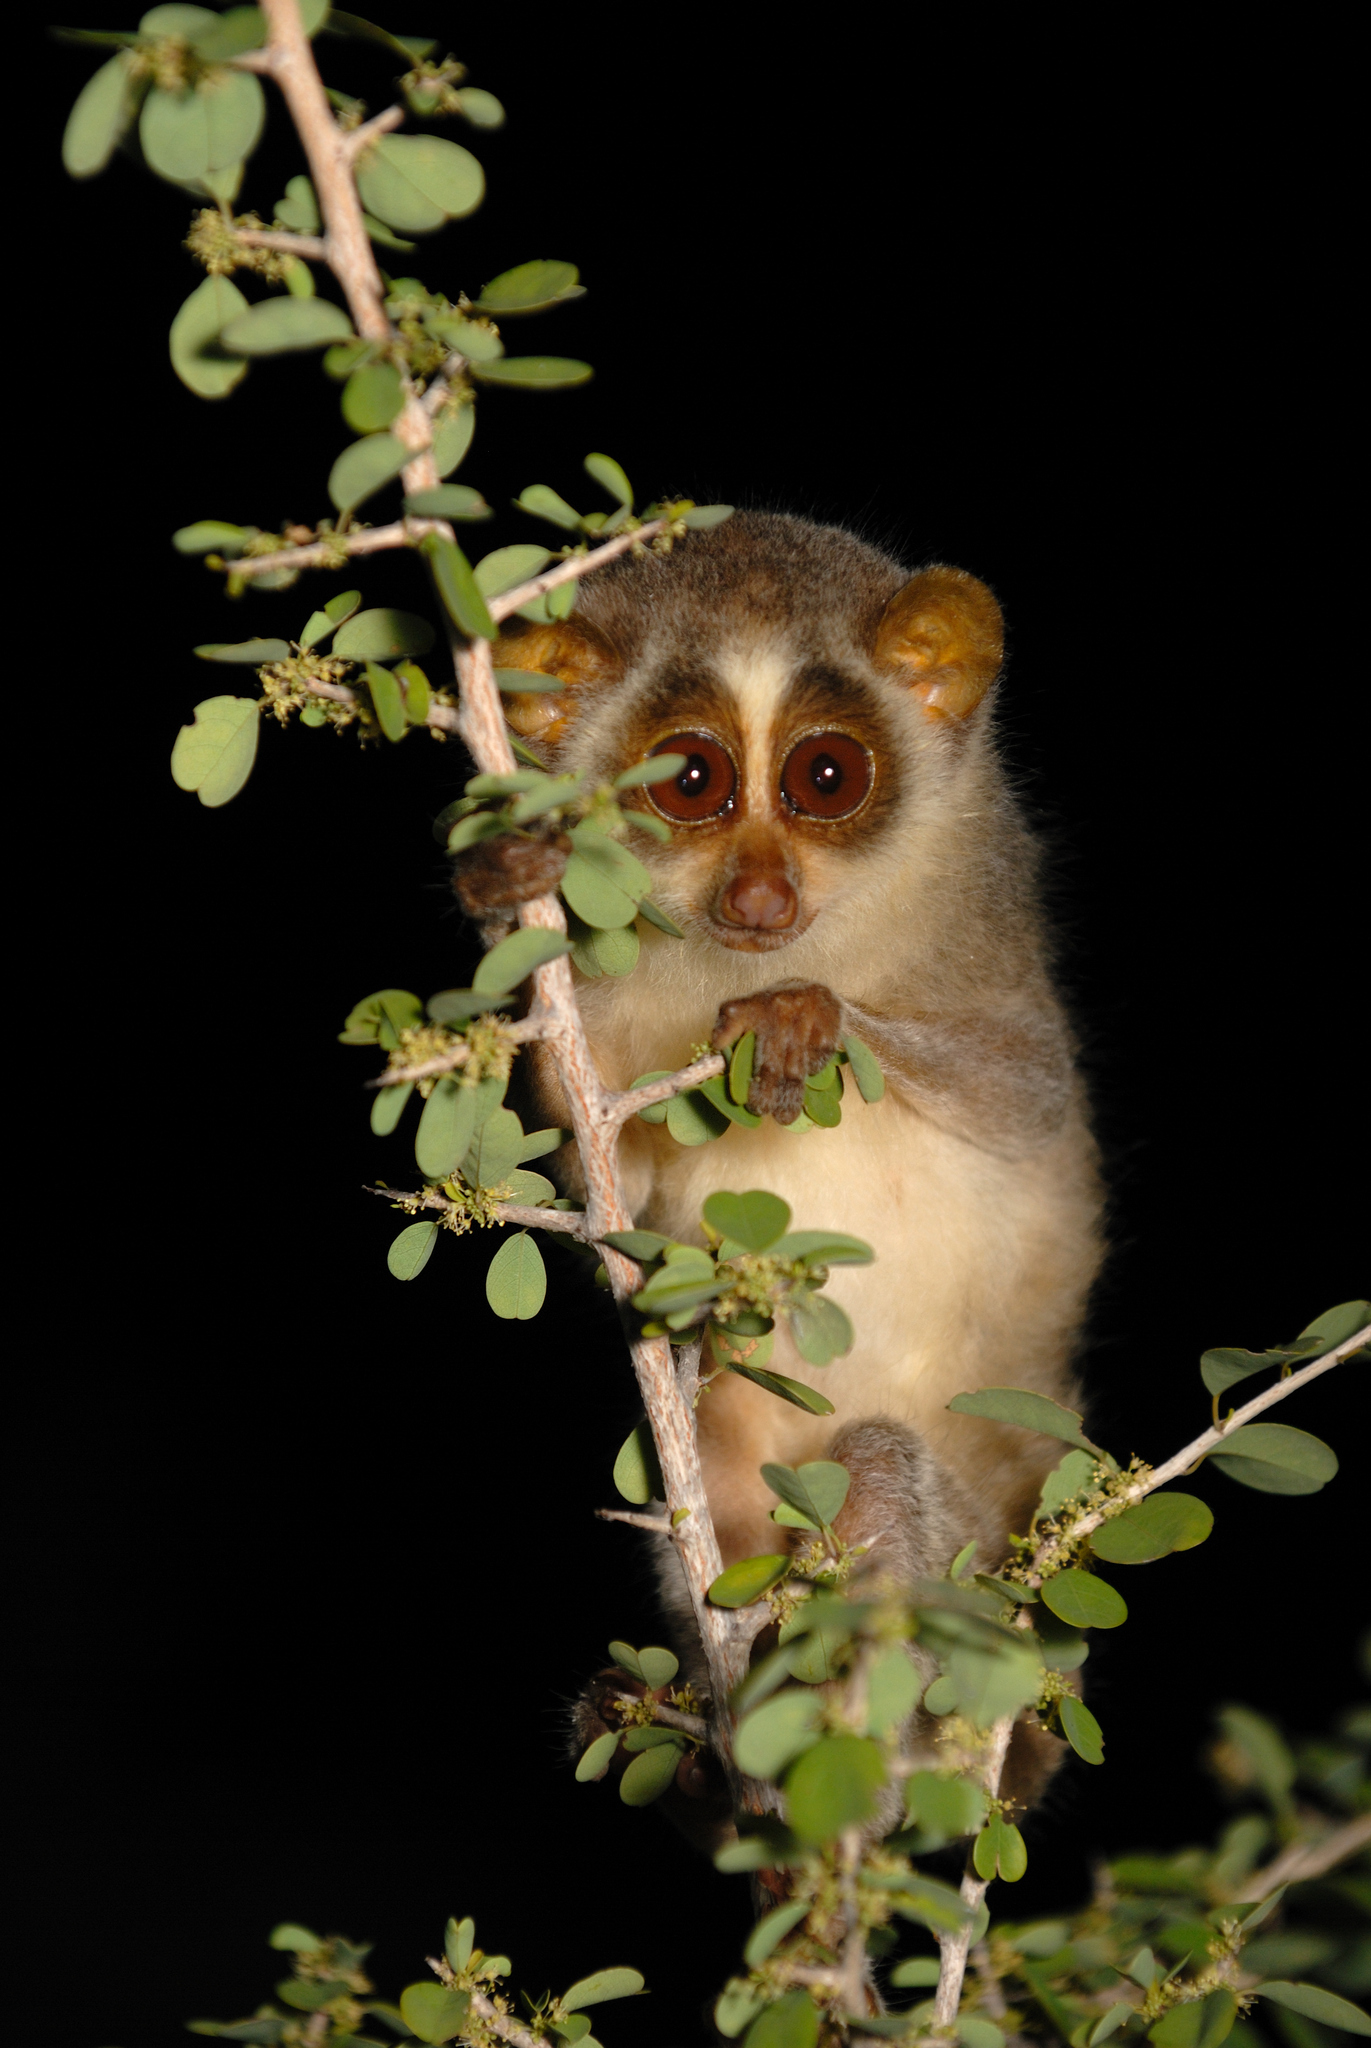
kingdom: Animalia
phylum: Chordata
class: Mammalia
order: Primates
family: Lorisidae
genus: Loris
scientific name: Loris lydekkerianus
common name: Gray slender loris
